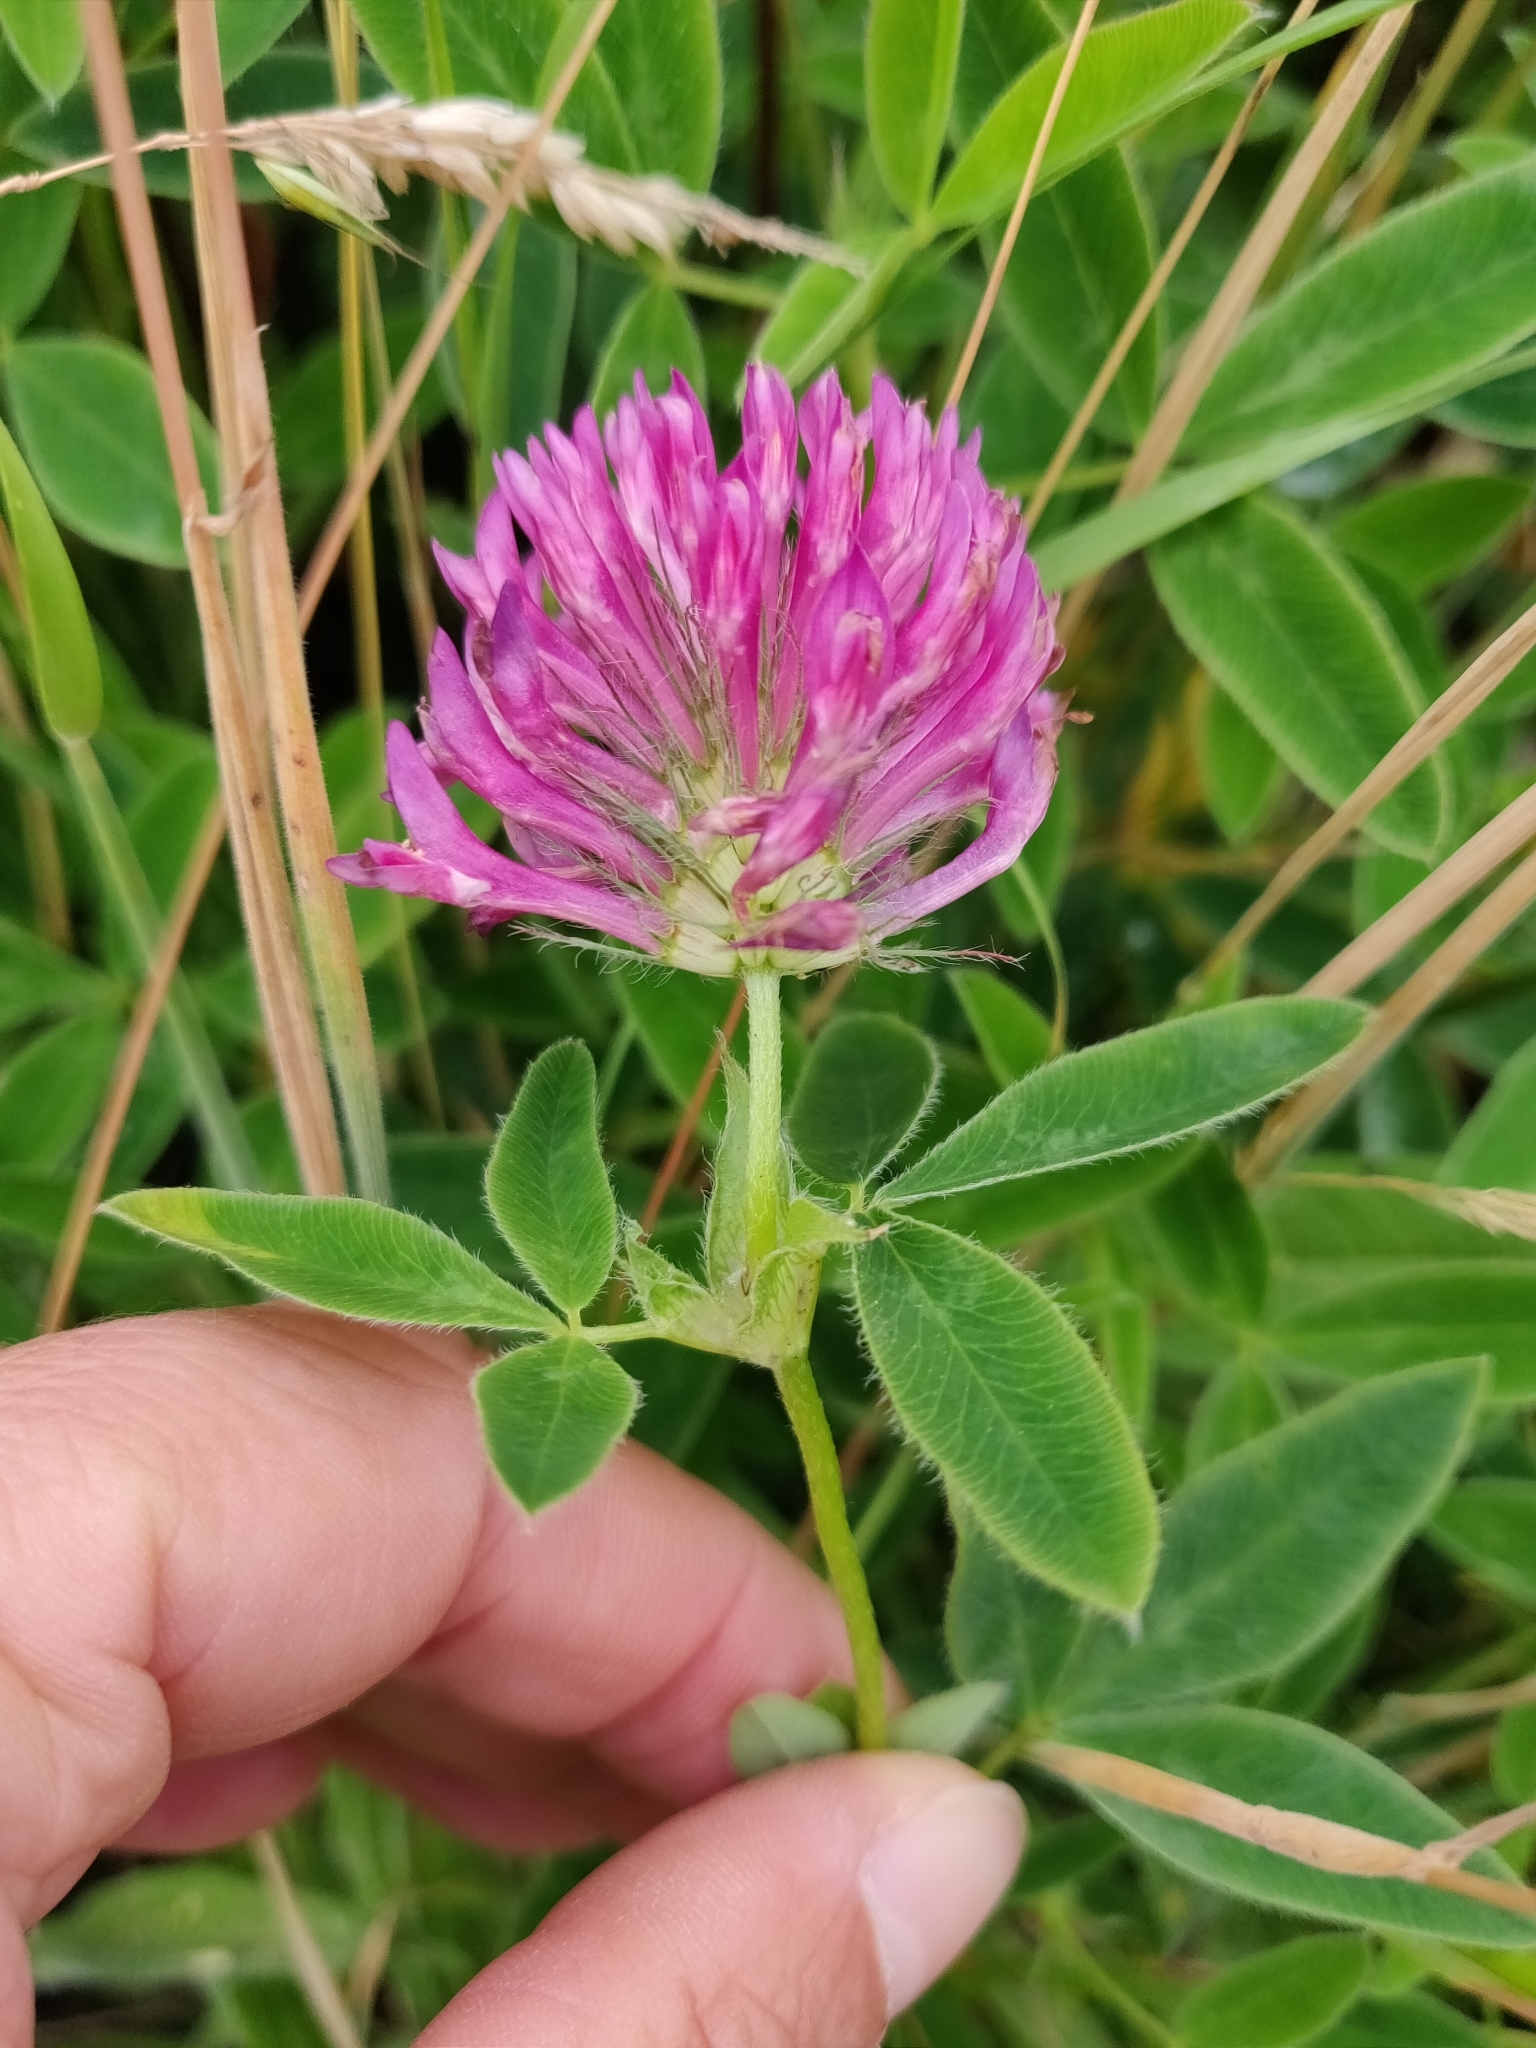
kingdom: Plantae
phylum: Tracheophyta
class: Magnoliopsida
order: Fabales
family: Fabaceae
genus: Trifolium
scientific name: Trifolium medium
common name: Zigzag clover
